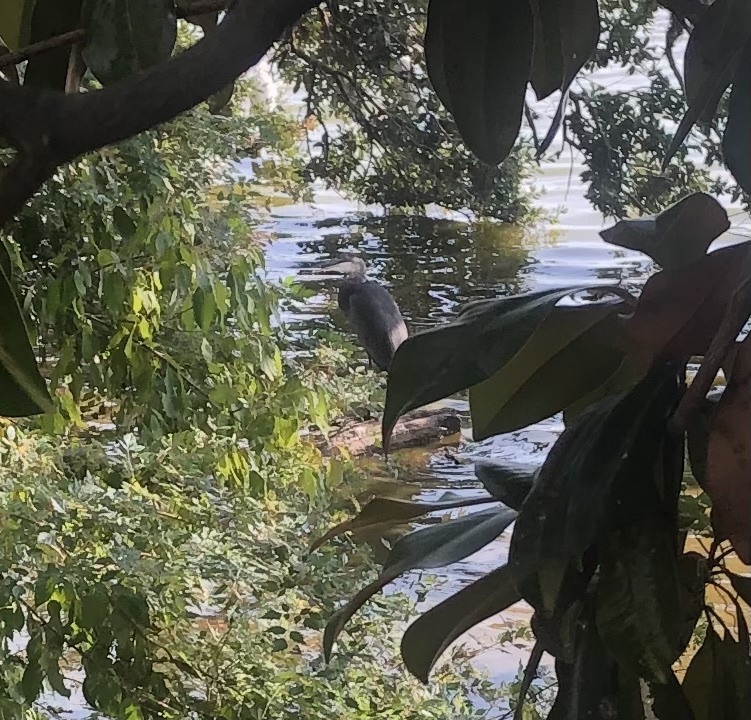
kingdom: Animalia
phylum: Chordata
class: Aves
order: Pelecaniformes
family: Ardeidae
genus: Ardea
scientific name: Ardea herodias
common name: Great blue heron
